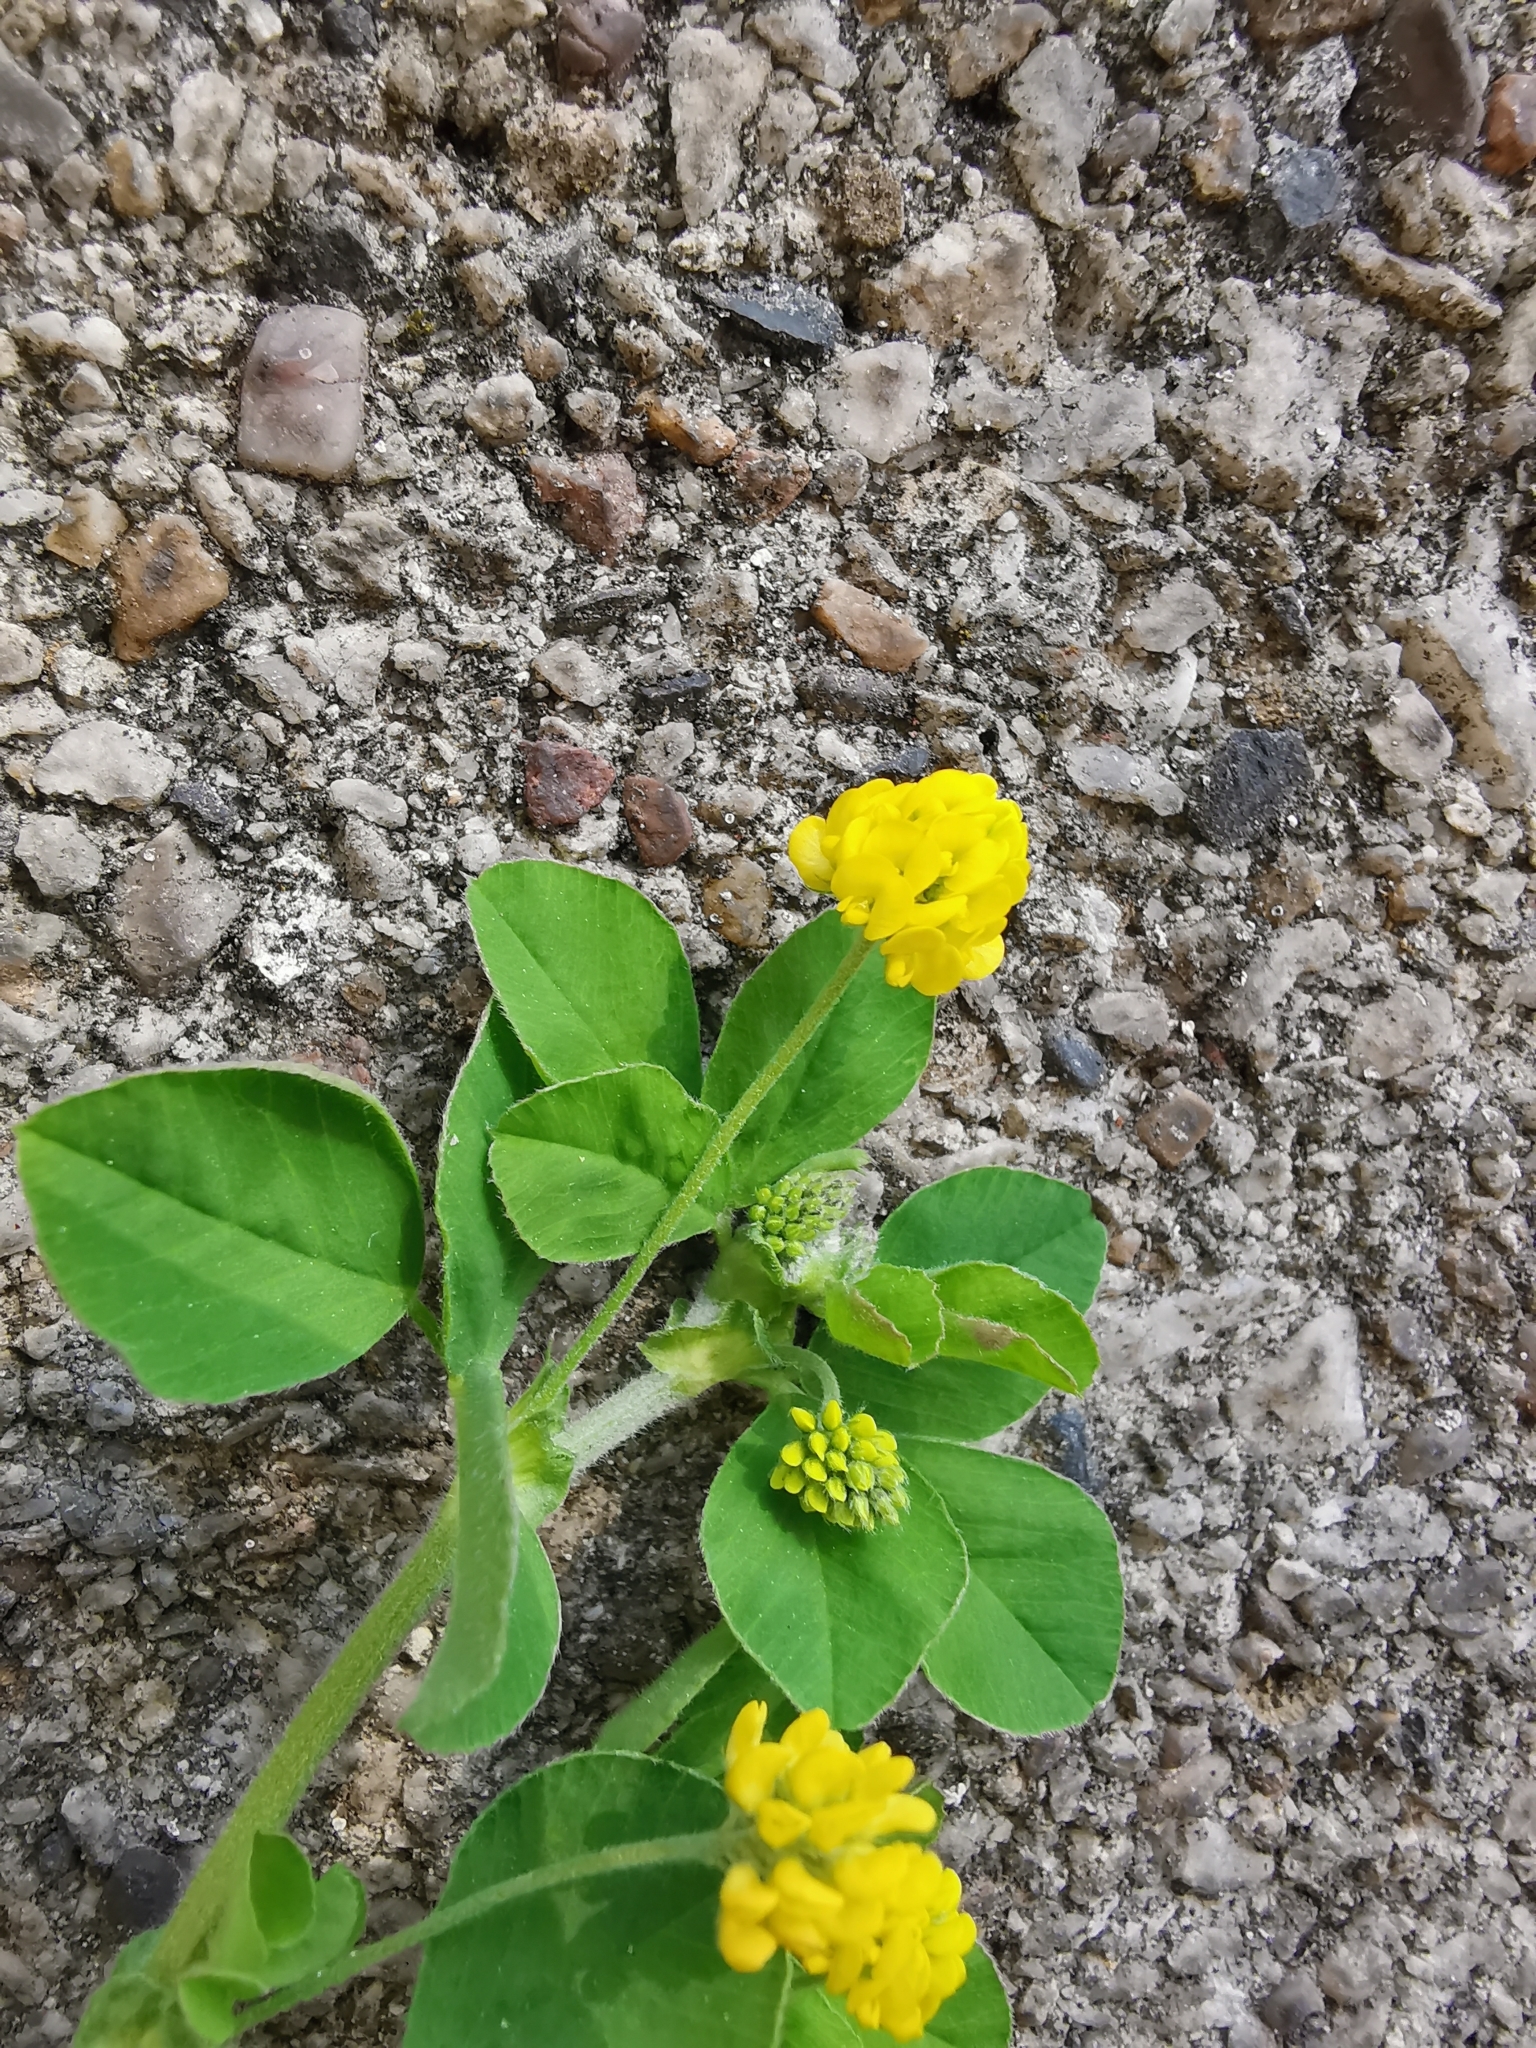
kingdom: Plantae
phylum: Tracheophyta
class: Magnoliopsida
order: Fabales
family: Fabaceae
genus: Medicago
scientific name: Medicago lupulina
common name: Black medick
